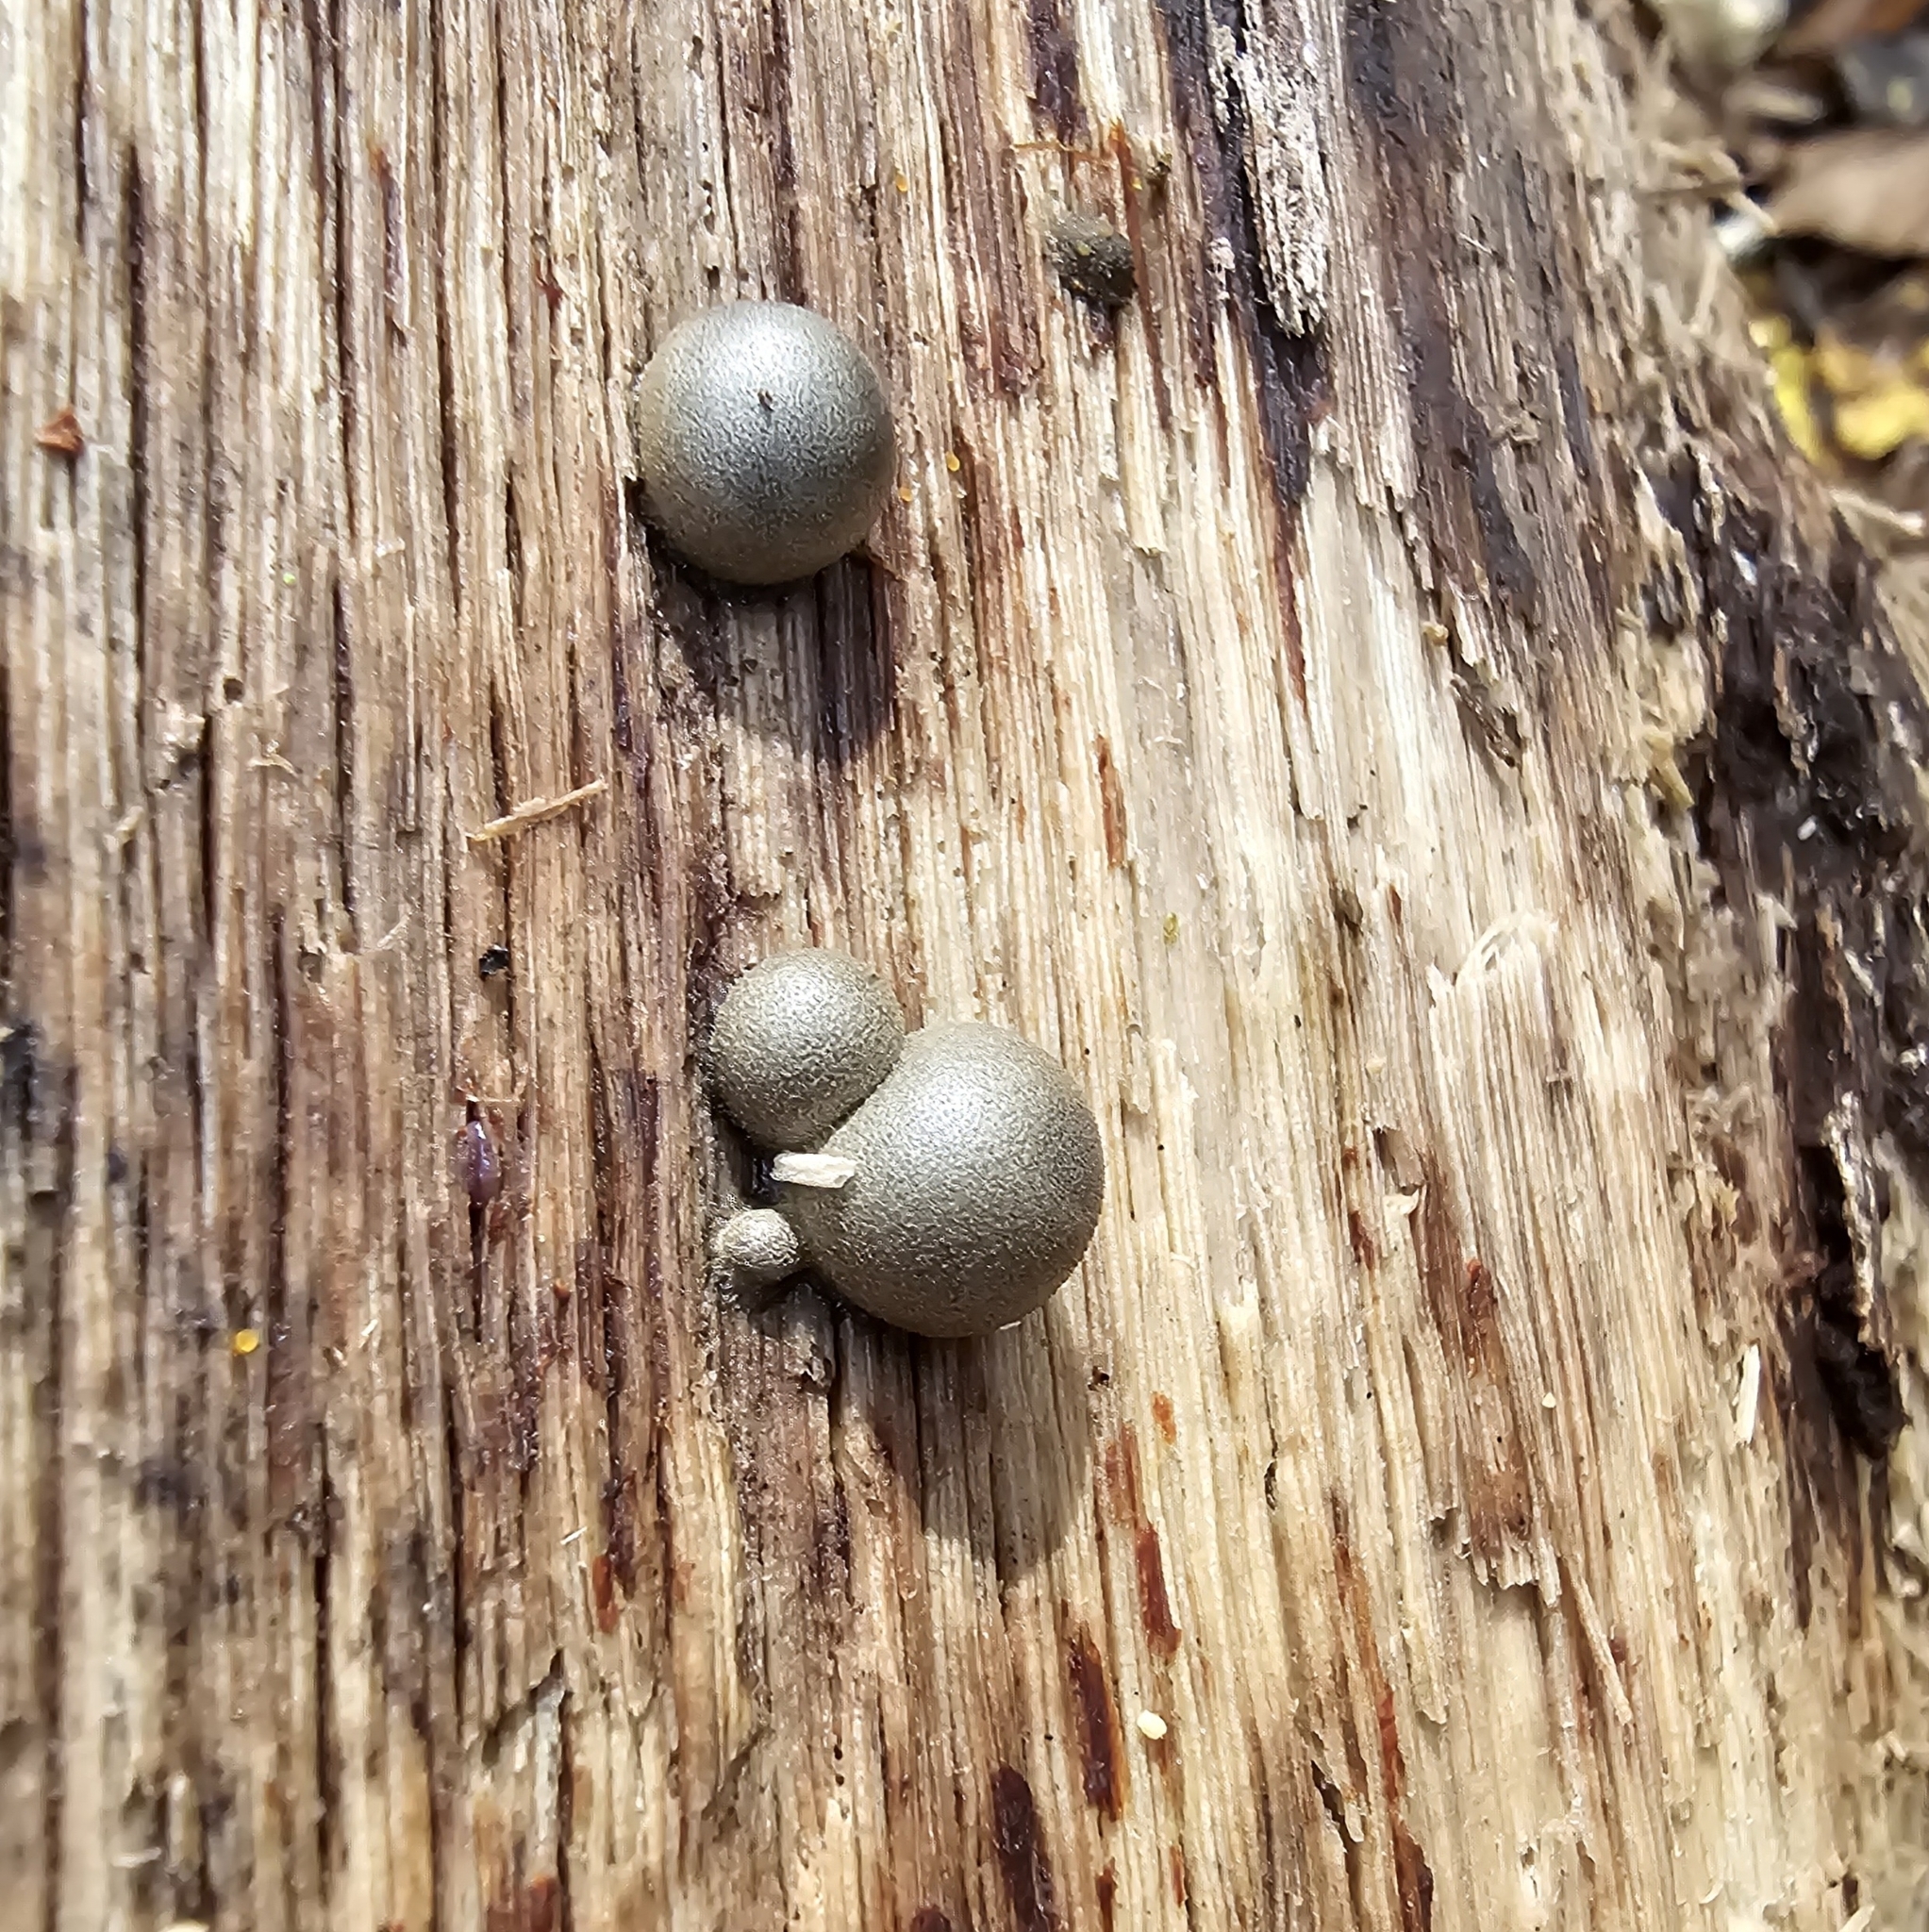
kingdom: Protozoa
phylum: Mycetozoa
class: Myxomycetes
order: Cribrariales
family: Tubiferaceae
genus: Lycogala
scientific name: Lycogala epidendrum
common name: Wolf's milk
